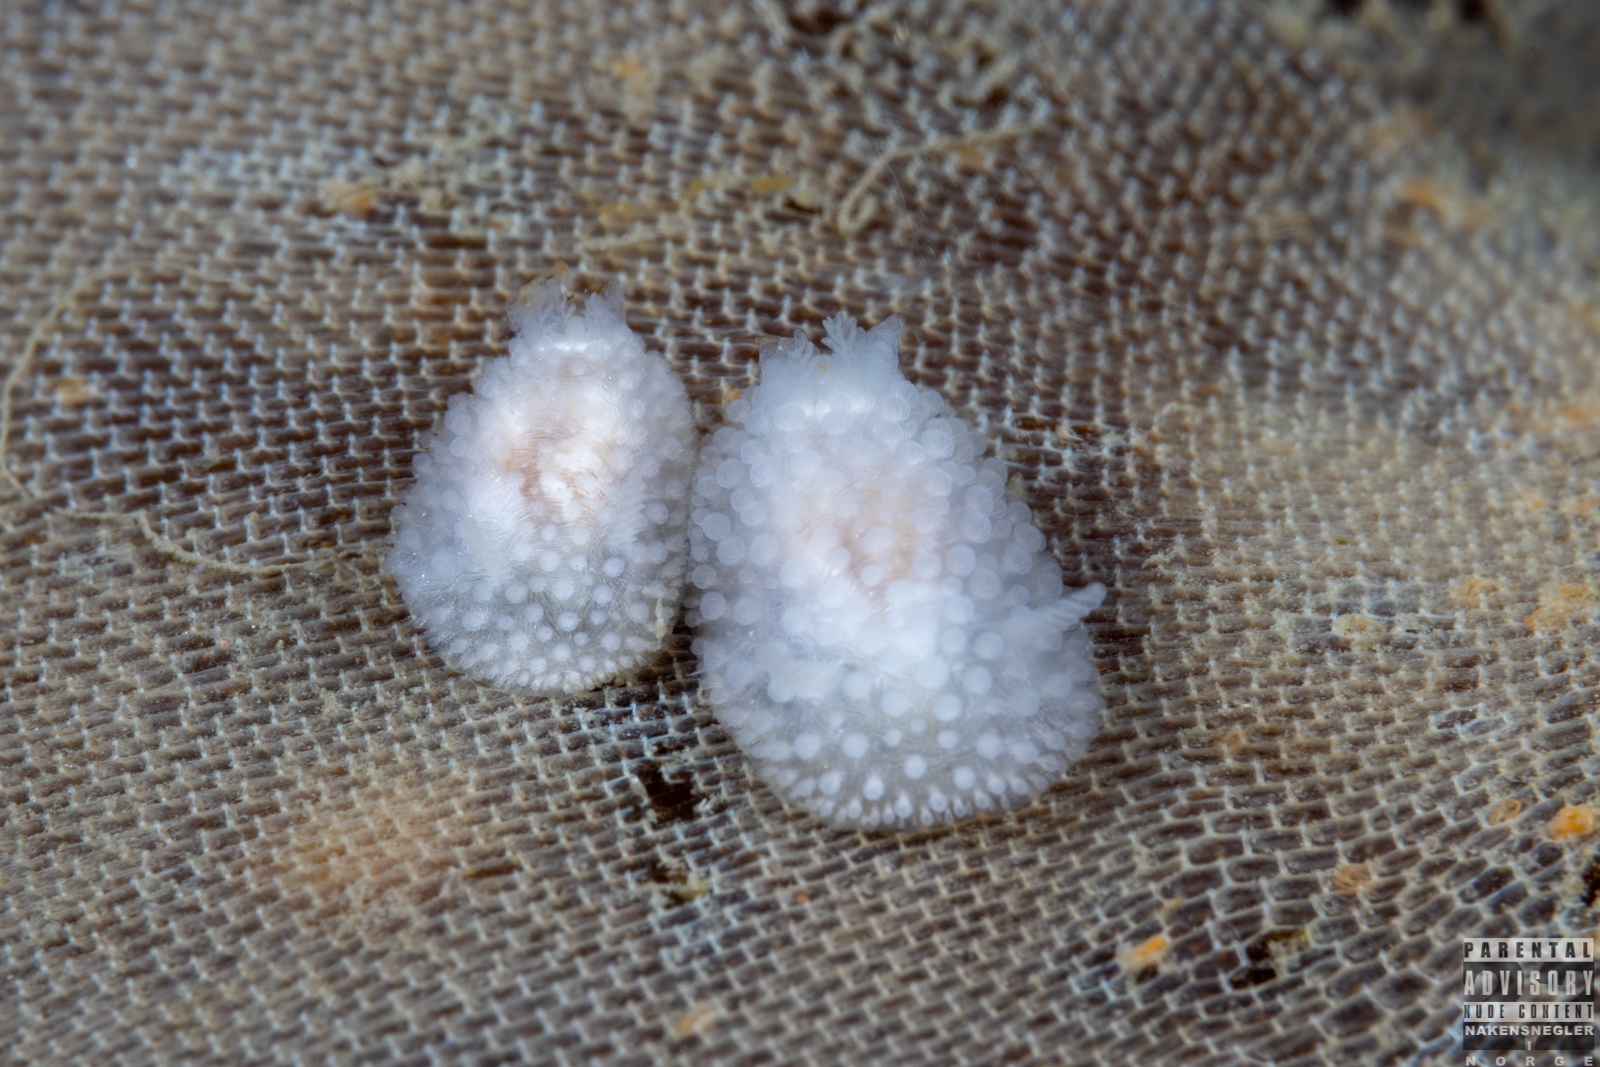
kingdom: Animalia
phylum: Mollusca
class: Gastropoda
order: Nudibranchia
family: Onchidorididae
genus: Onchidoris
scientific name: Onchidoris muricata
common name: Rough doris
